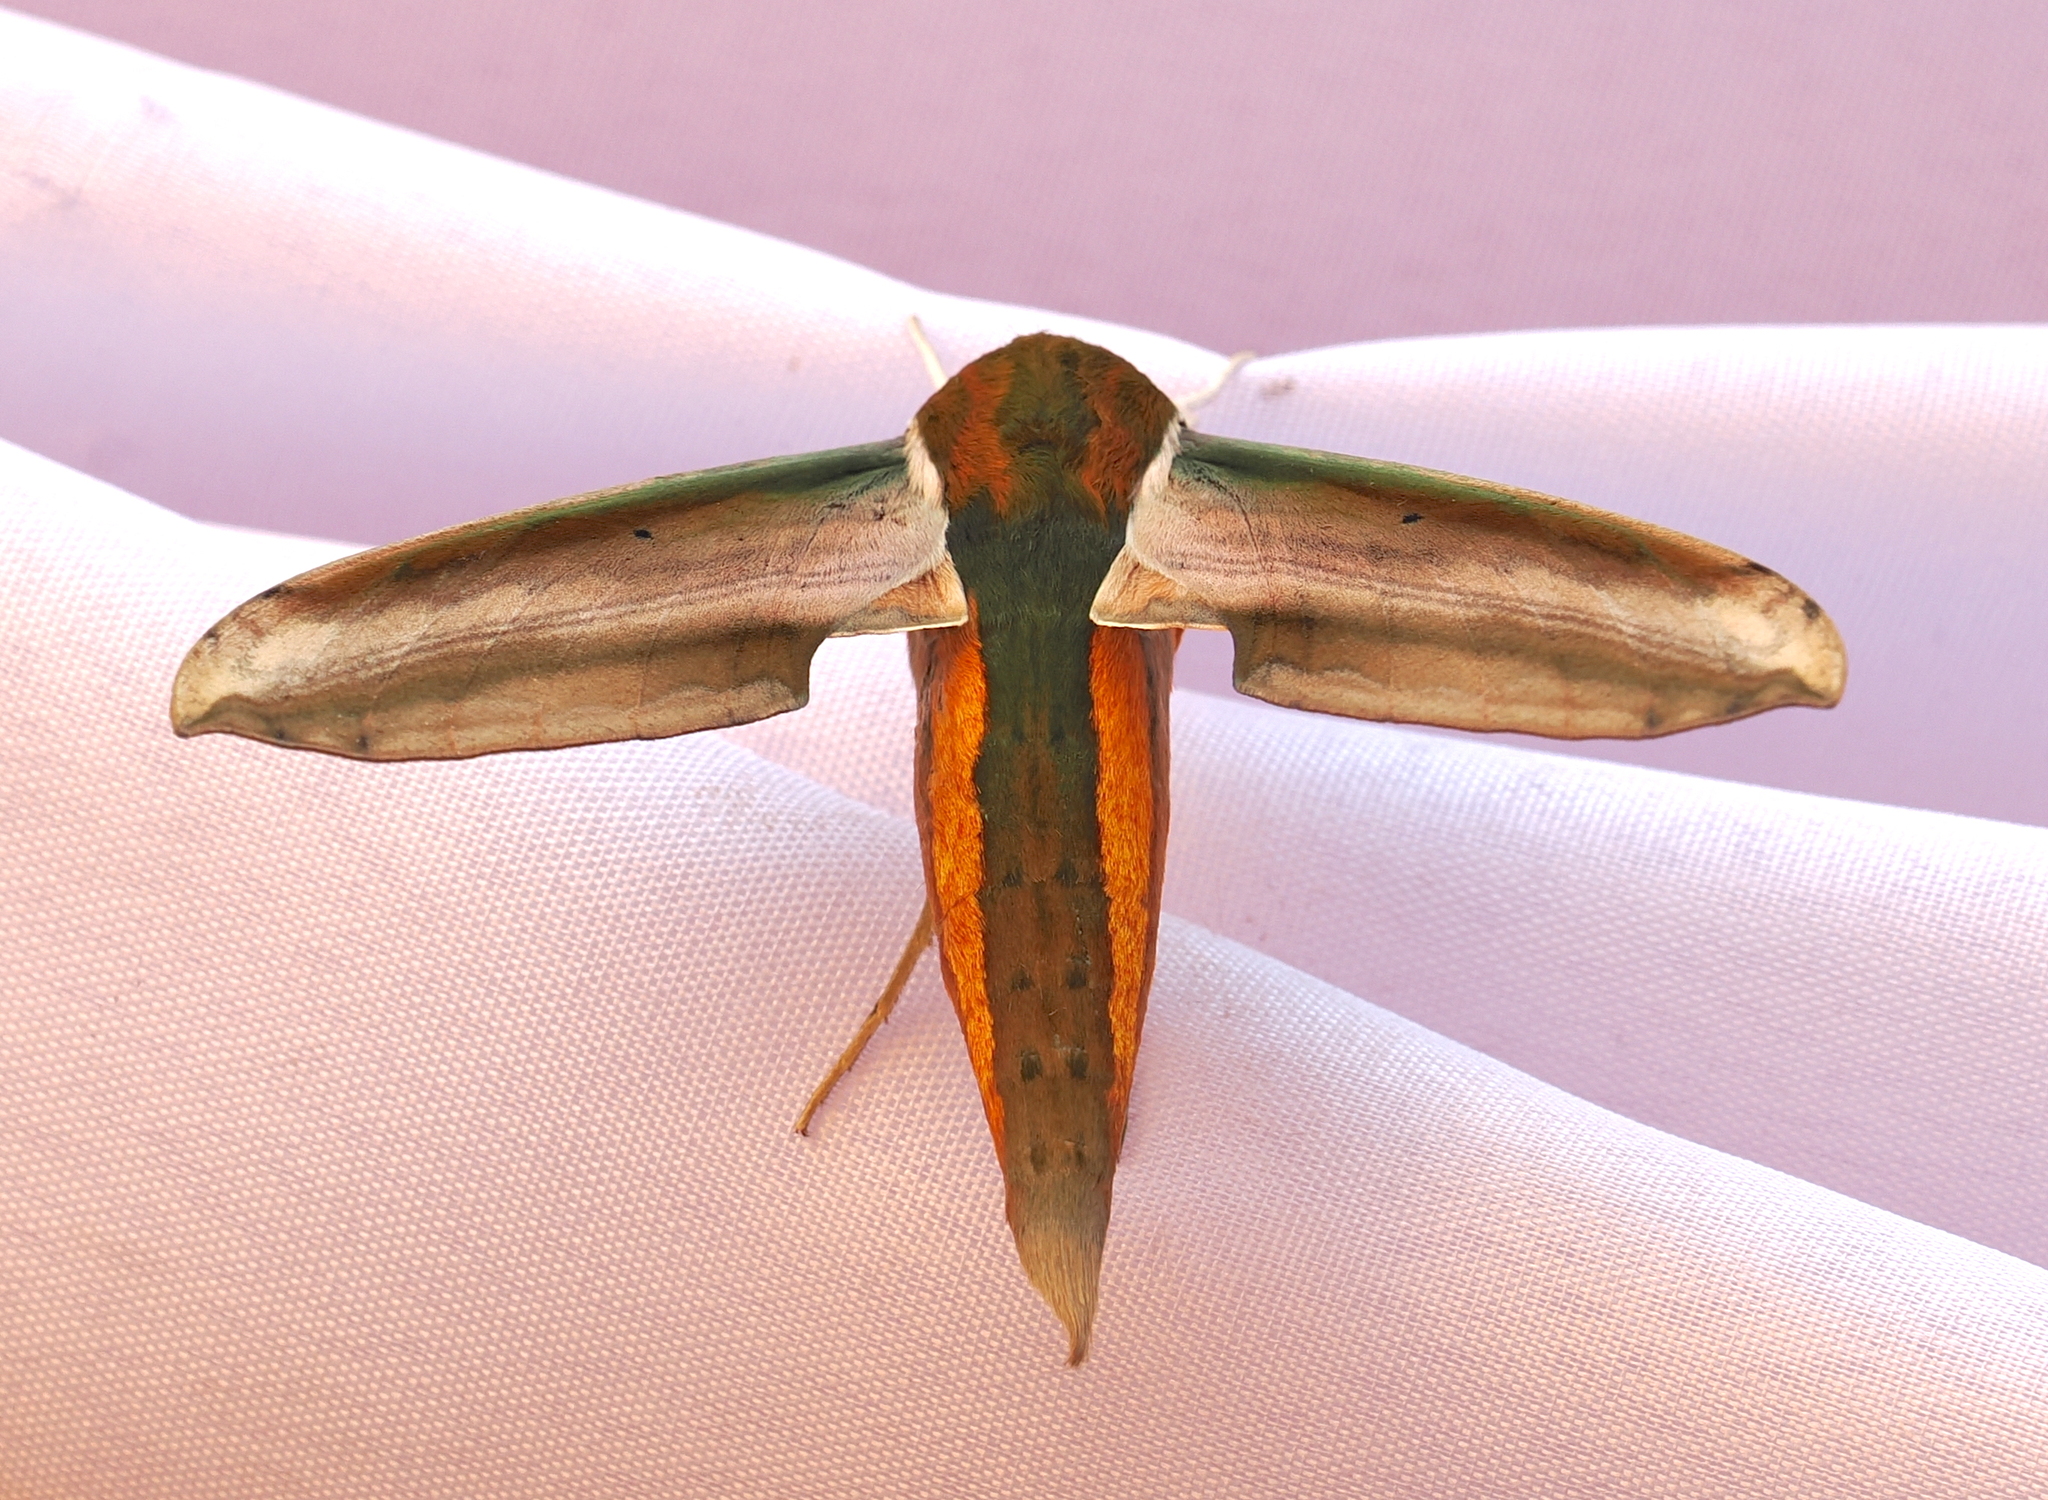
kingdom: Animalia
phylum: Arthropoda
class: Insecta
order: Lepidoptera
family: Sphingidae
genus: Theretra
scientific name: Theretra nessus
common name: Yam hawk moth
